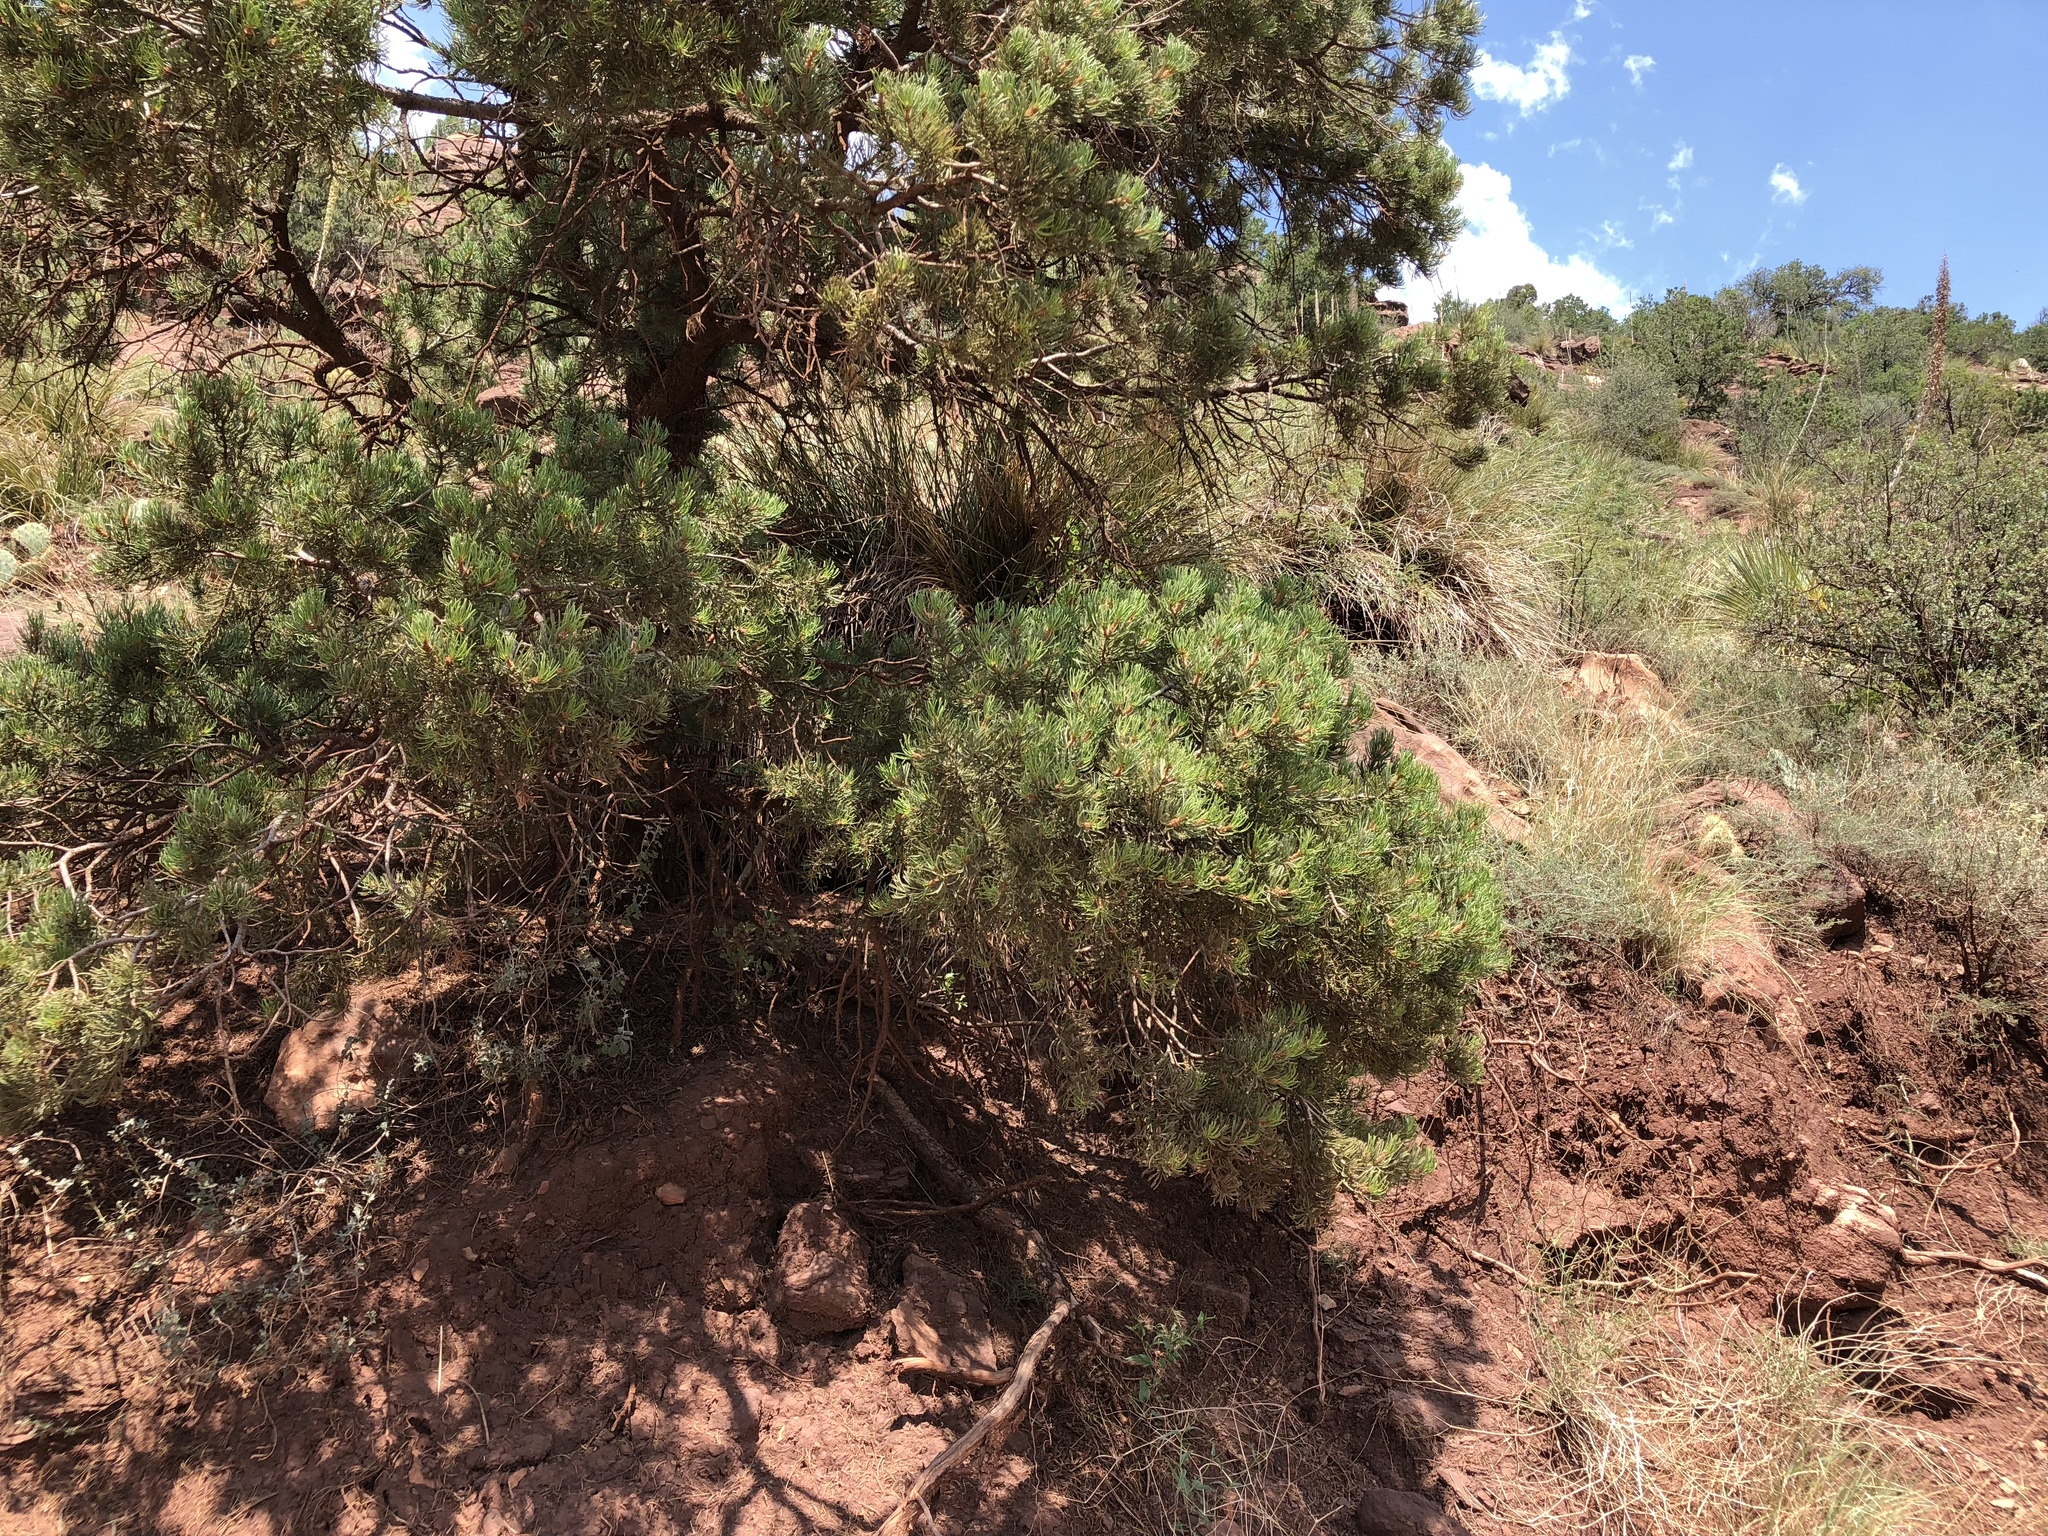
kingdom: Plantae
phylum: Tracheophyta
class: Pinopsida
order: Pinales
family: Pinaceae
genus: Pinus
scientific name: Pinus edulis
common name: Colorado pinyon
